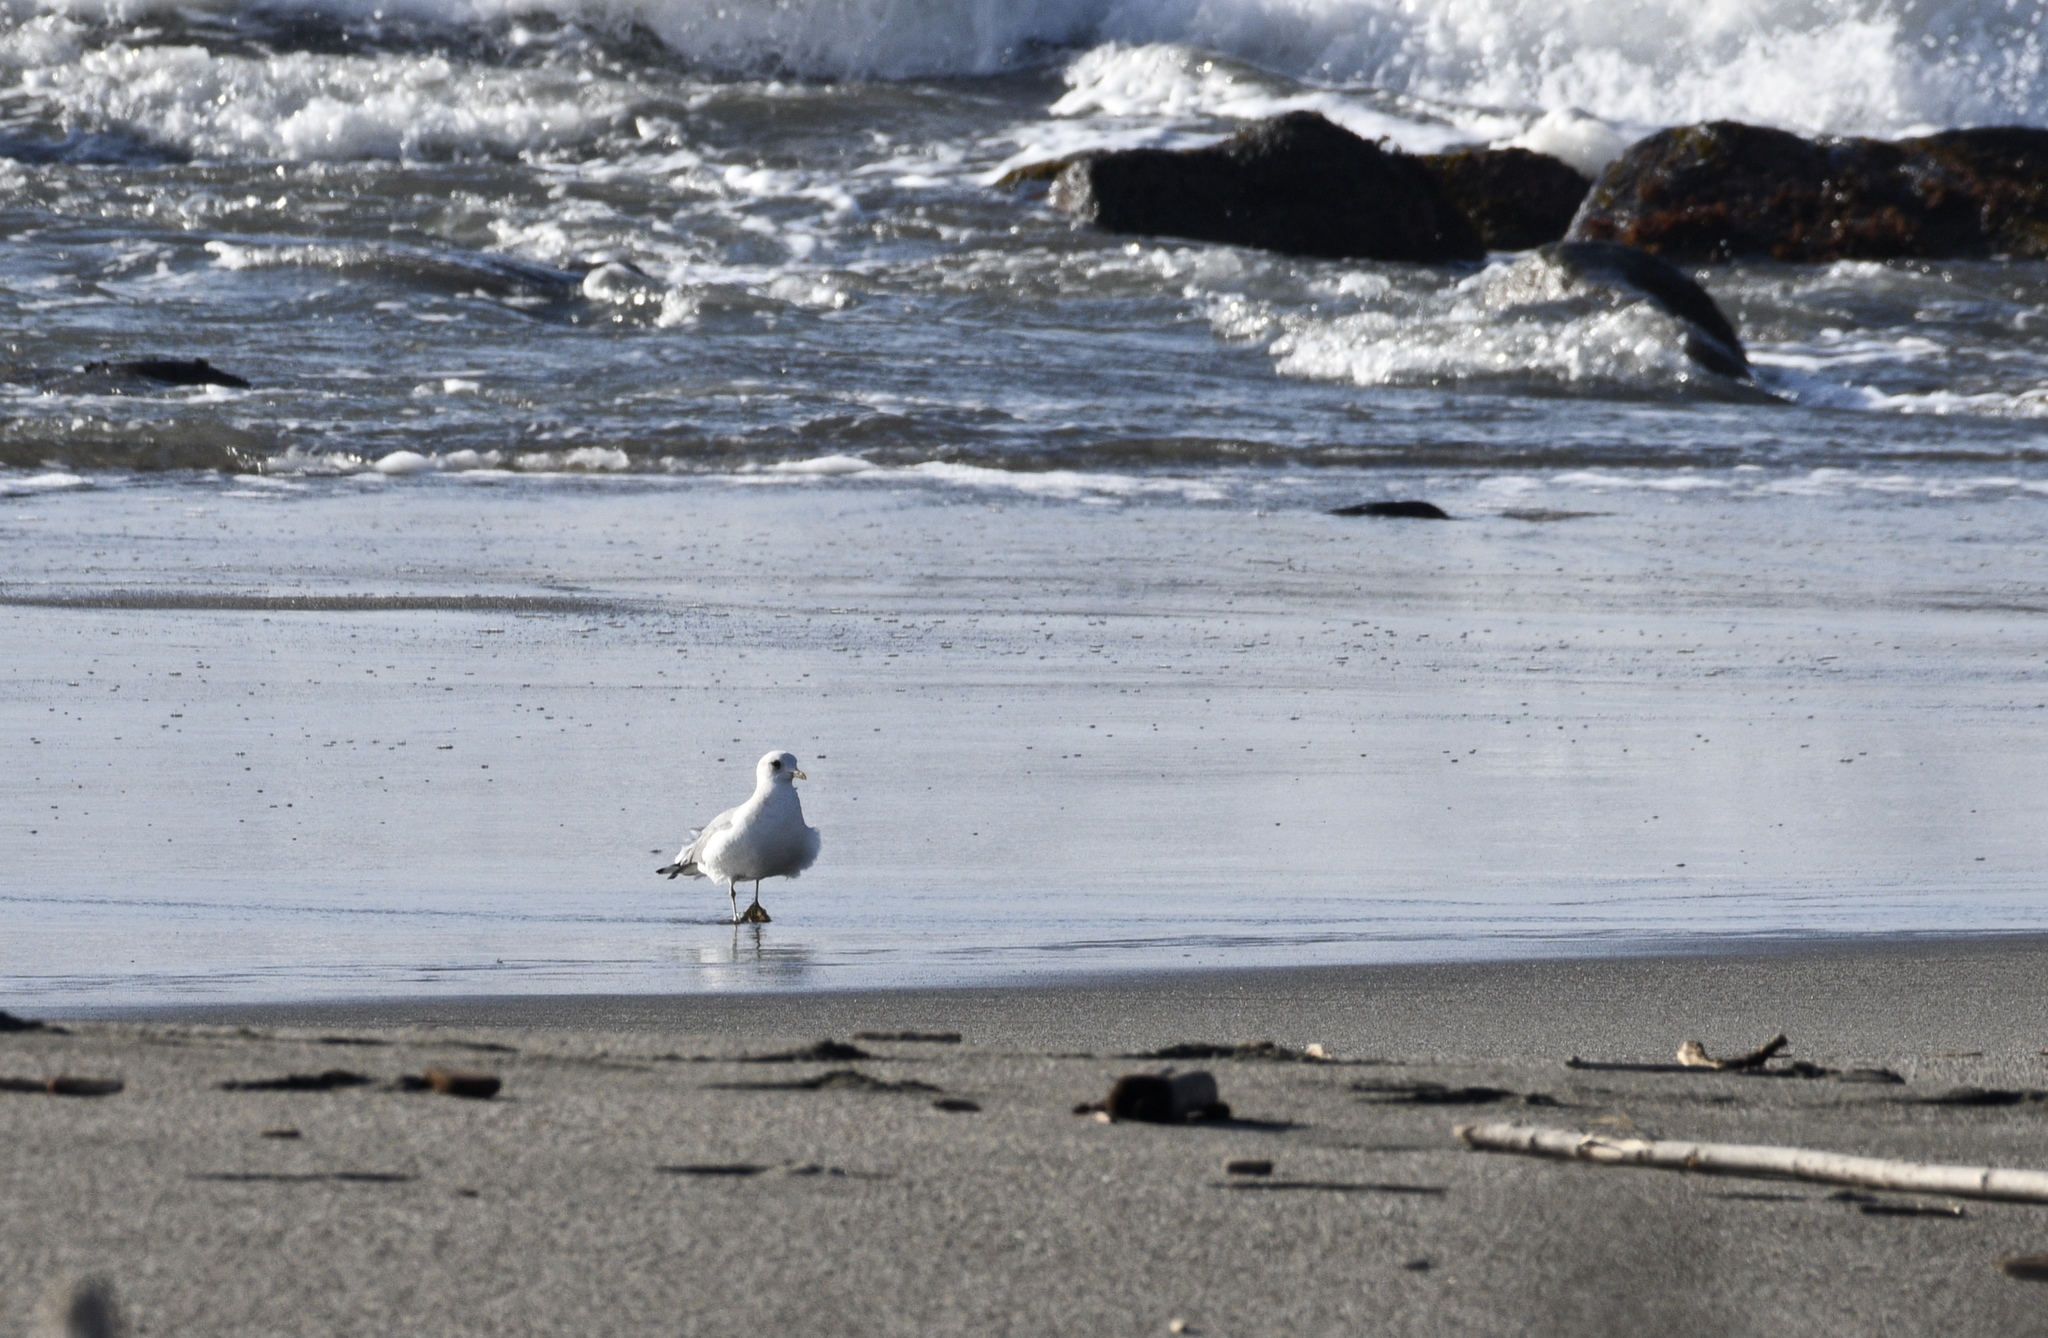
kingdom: Animalia
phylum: Chordata
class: Aves
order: Charadriiformes
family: Laridae
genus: Larus
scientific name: Larus brachyrhynchus
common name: Short-billed gull
